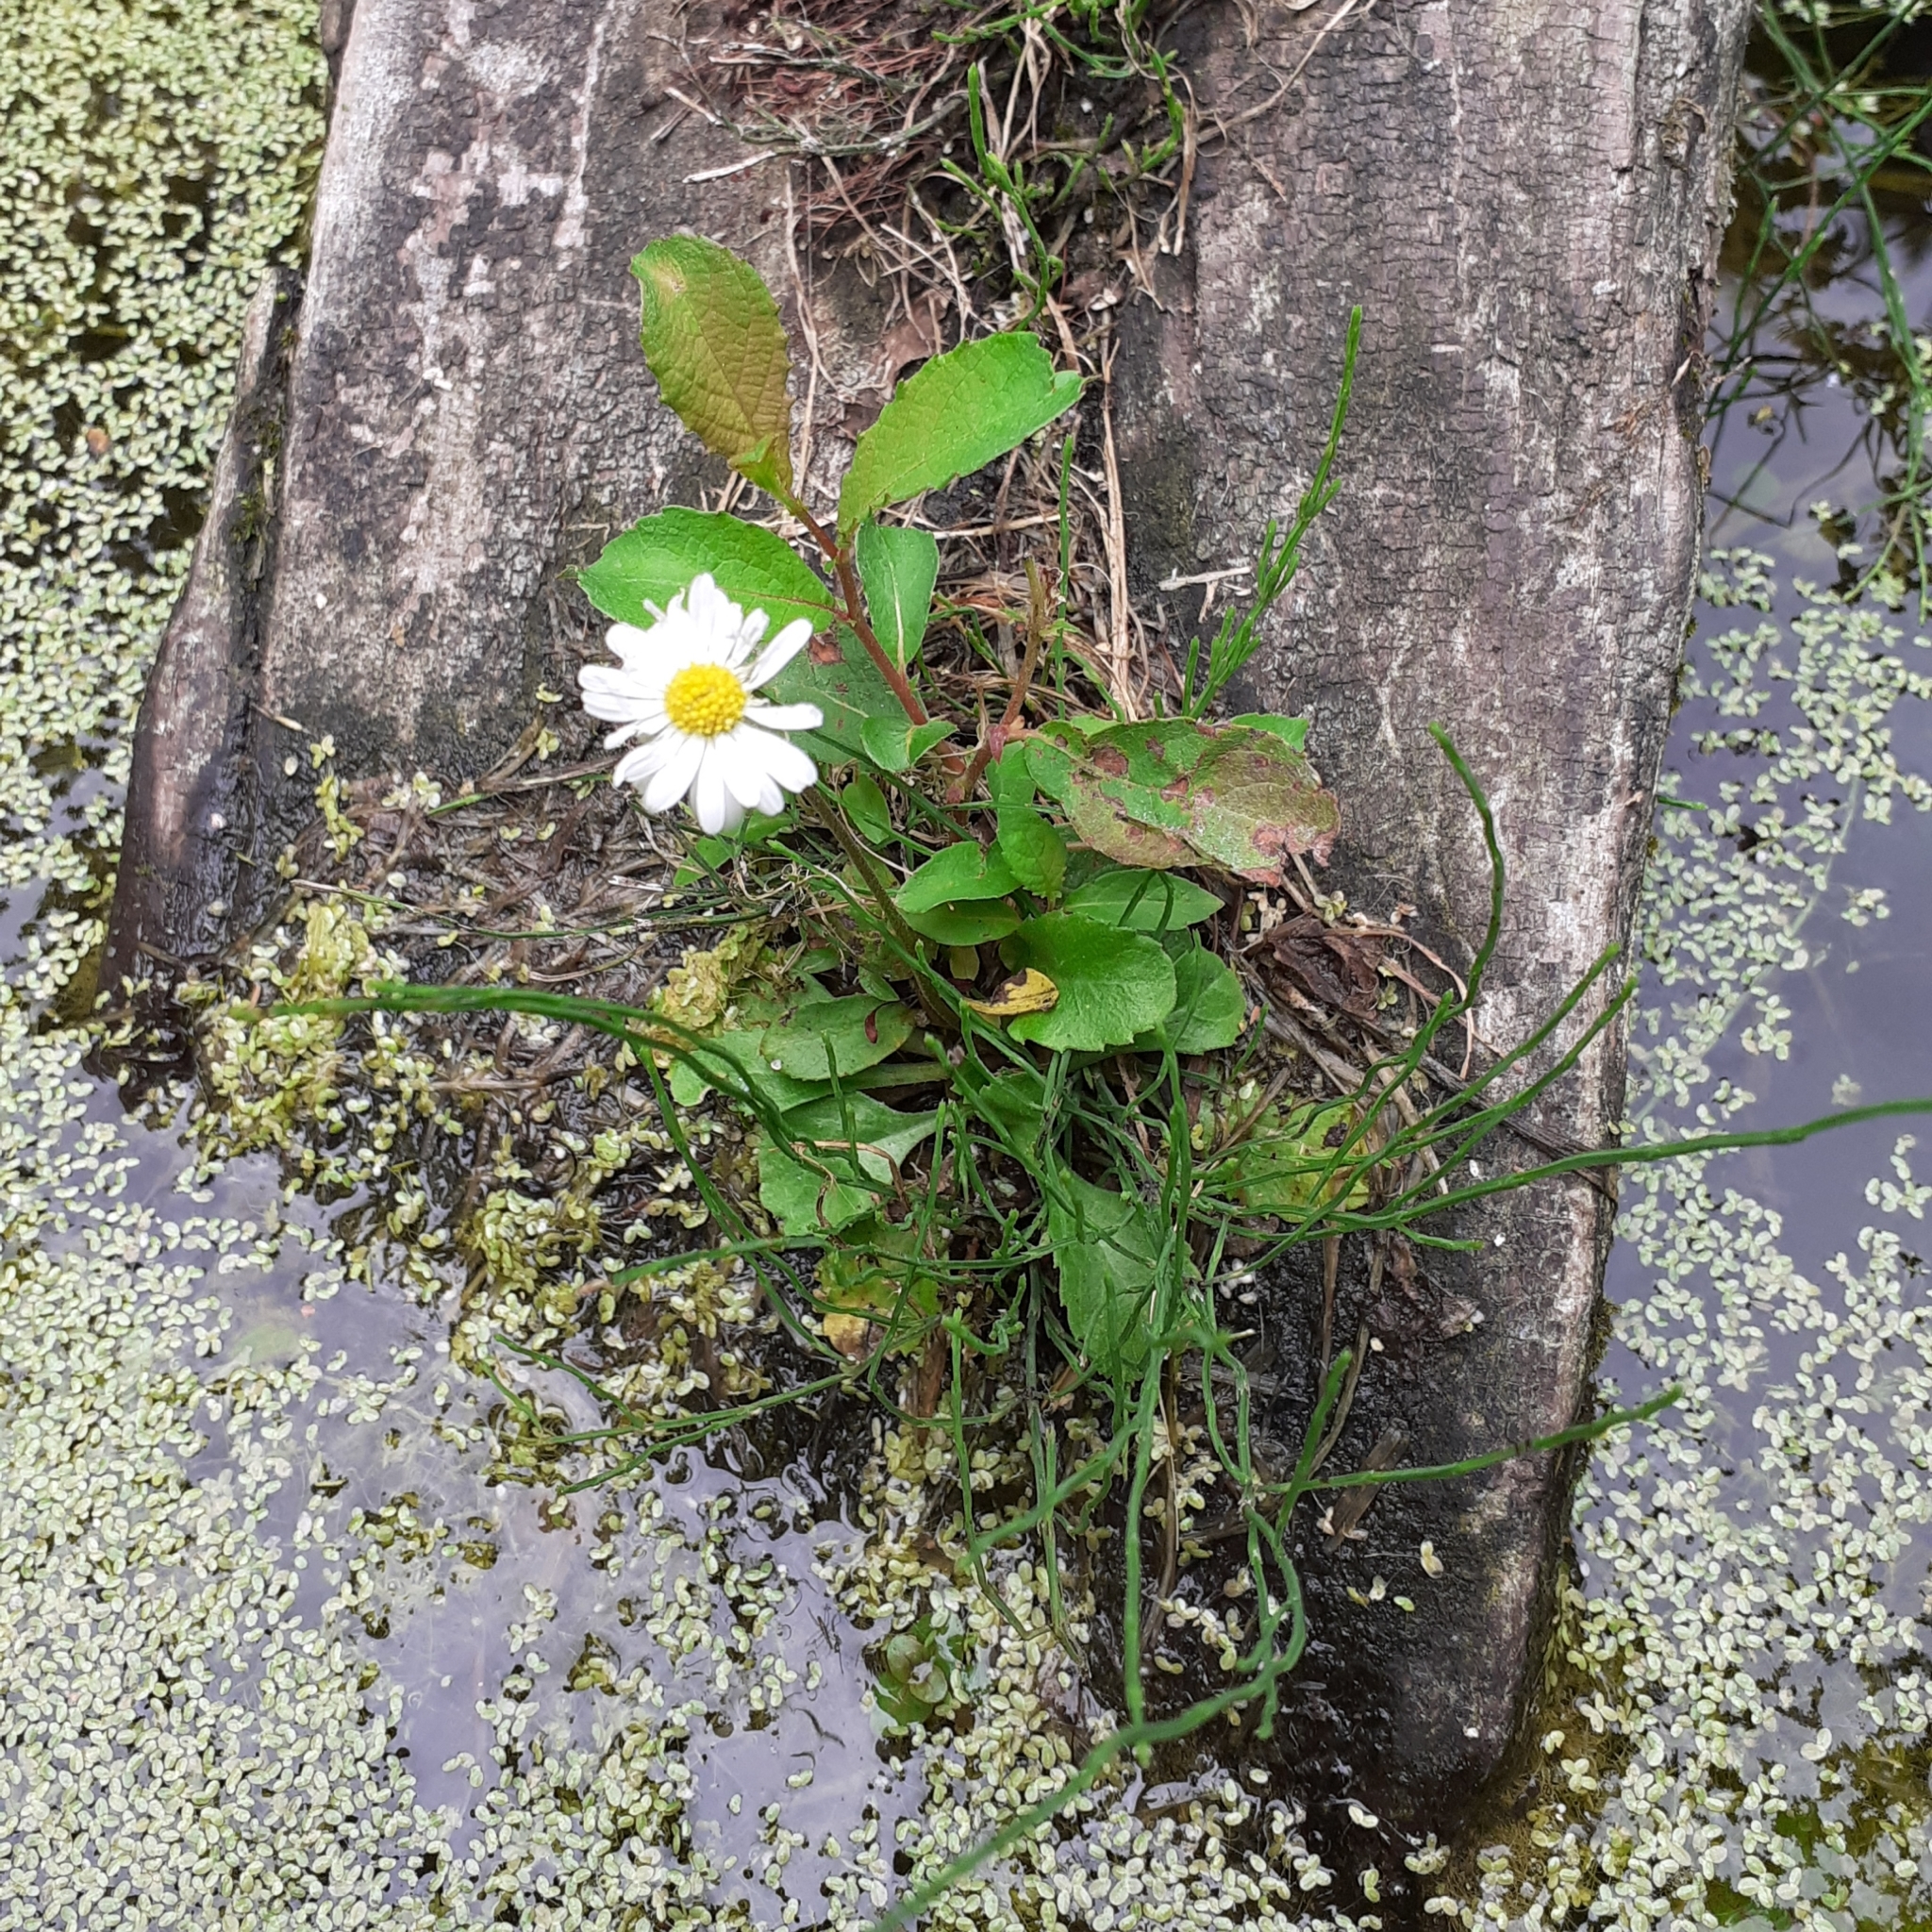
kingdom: Plantae
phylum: Tracheophyta
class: Magnoliopsida
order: Asterales
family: Asteraceae
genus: Bellis
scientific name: Bellis perennis
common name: Lawndaisy
